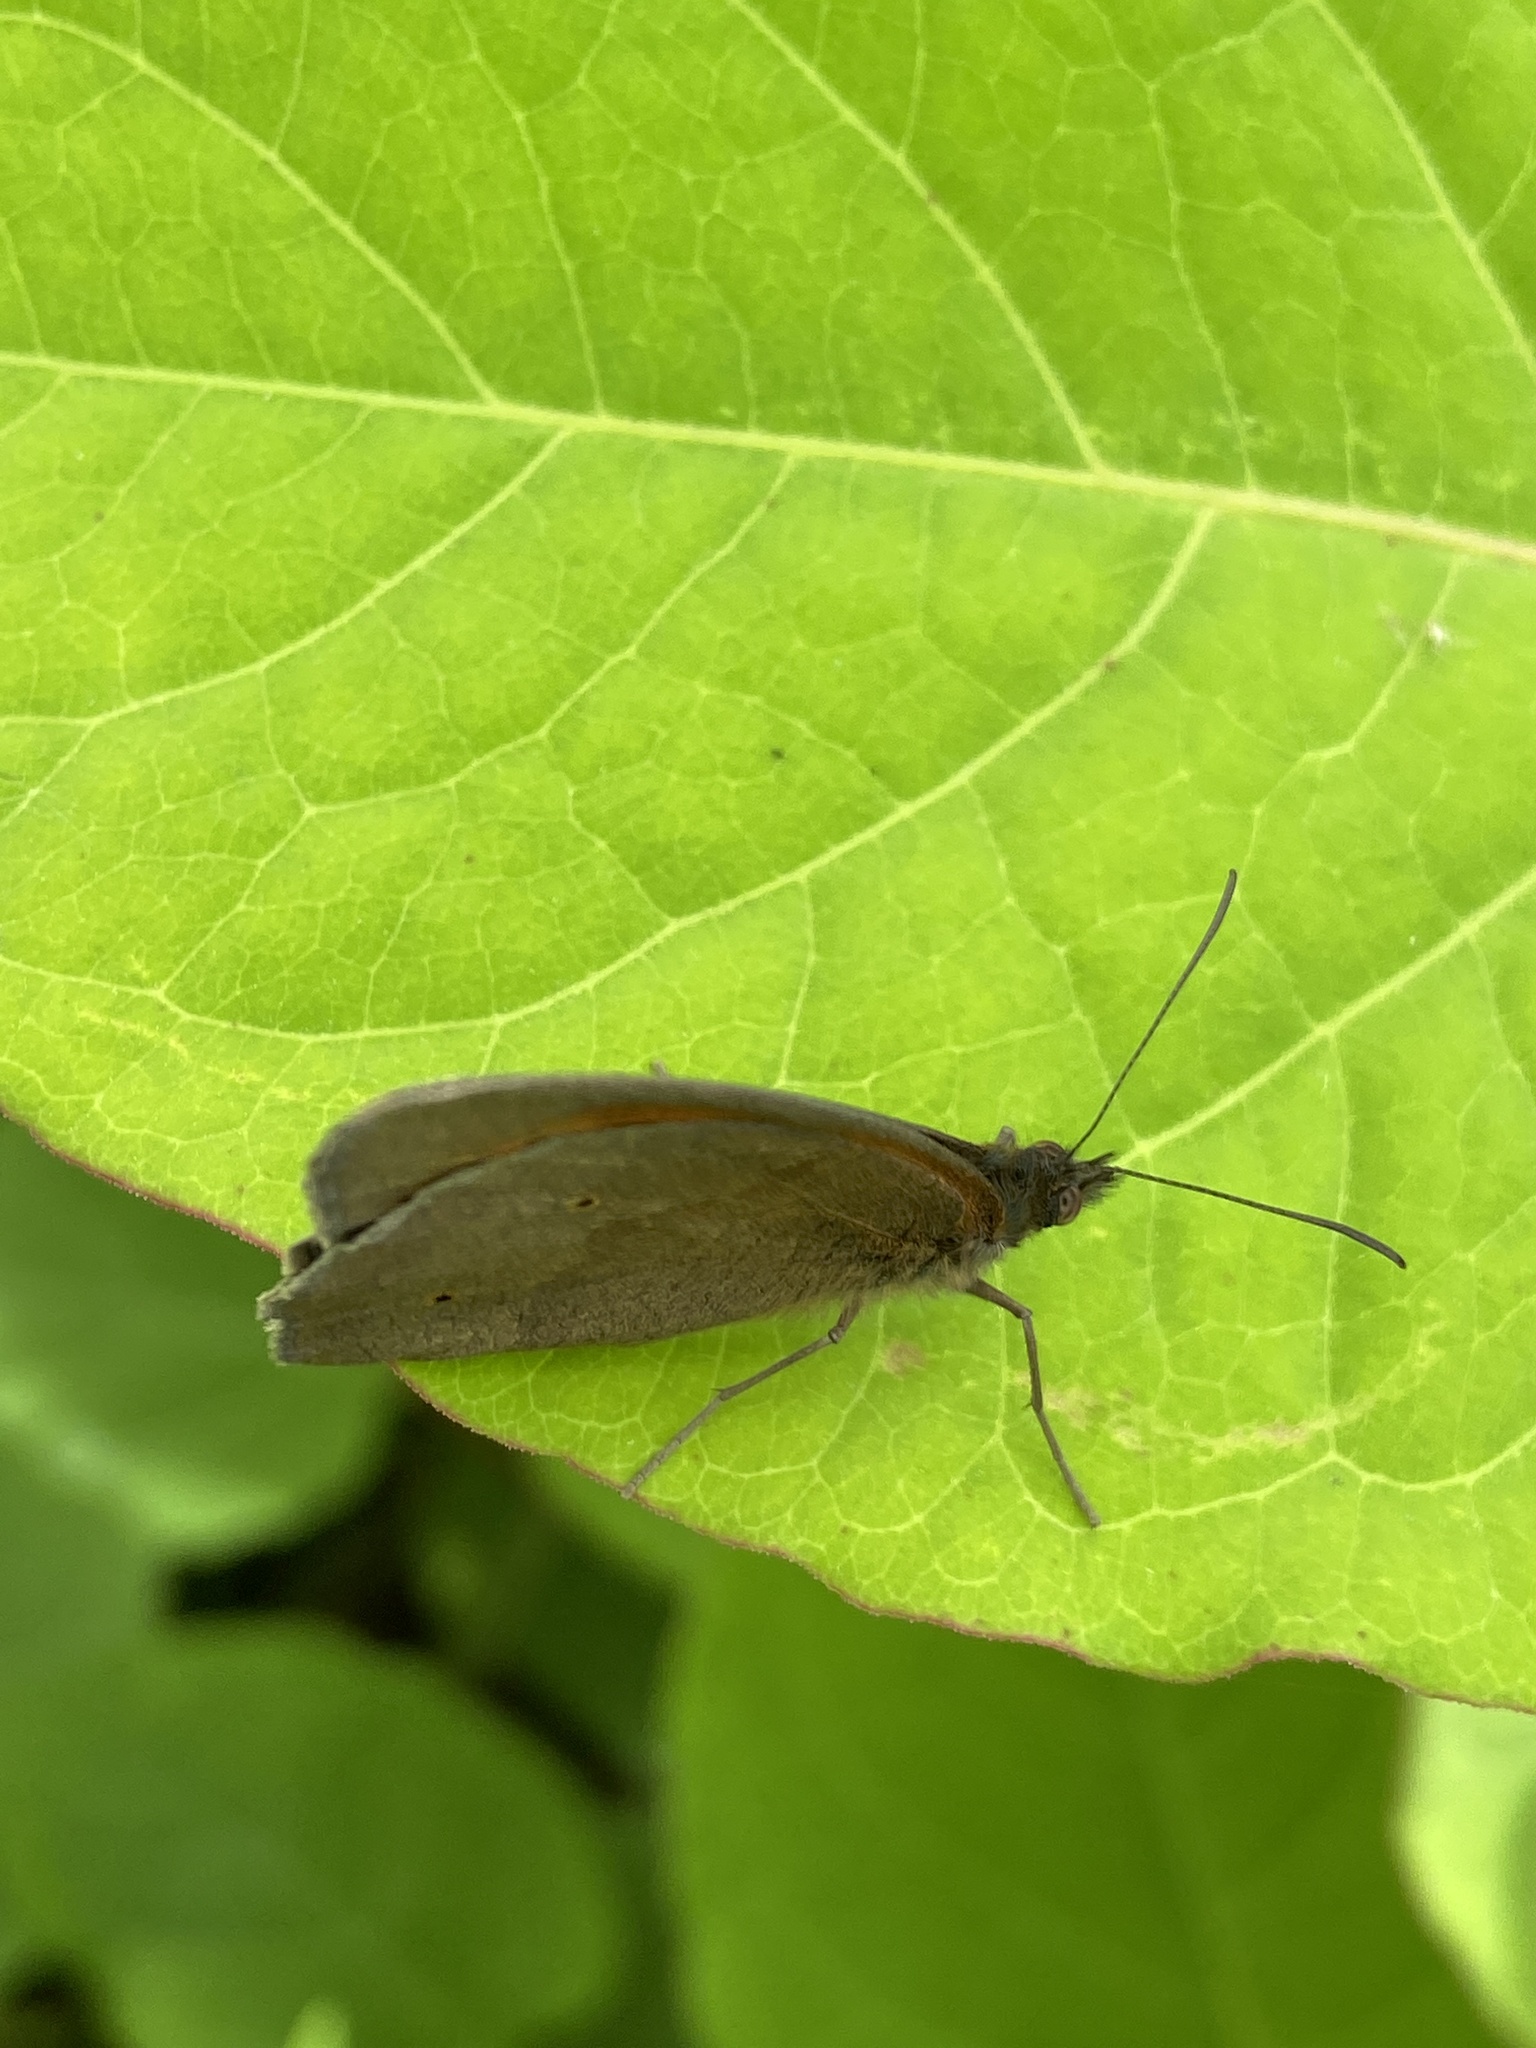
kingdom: Animalia
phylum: Arthropoda
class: Insecta
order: Lepidoptera
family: Nymphalidae
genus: Maniola
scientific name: Maniola jurtina
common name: Meadow brown
